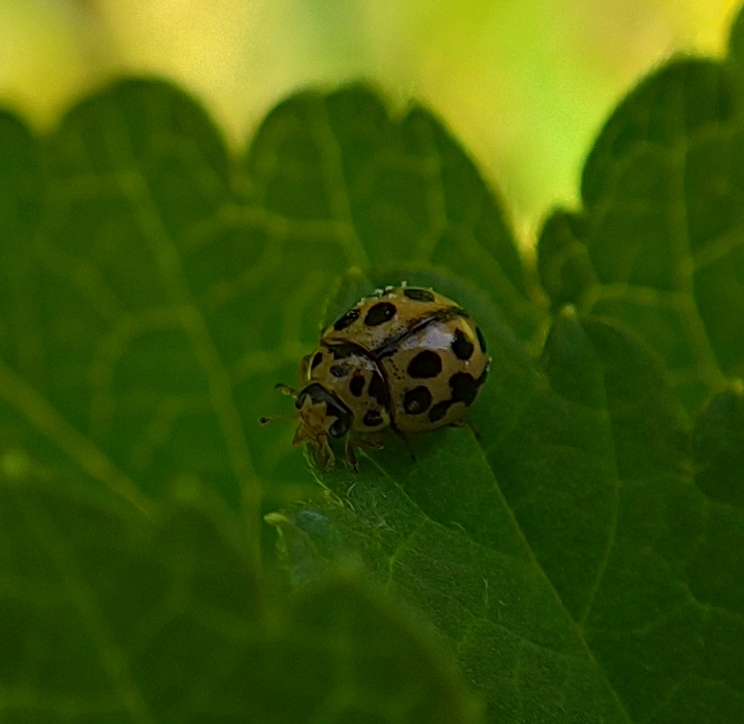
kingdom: Animalia
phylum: Arthropoda
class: Insecta
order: Coleoptera
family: Coccinellidae
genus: Tytthaspis
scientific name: Tytthaspis sedecimpunctata
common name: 16-spot ladybird
